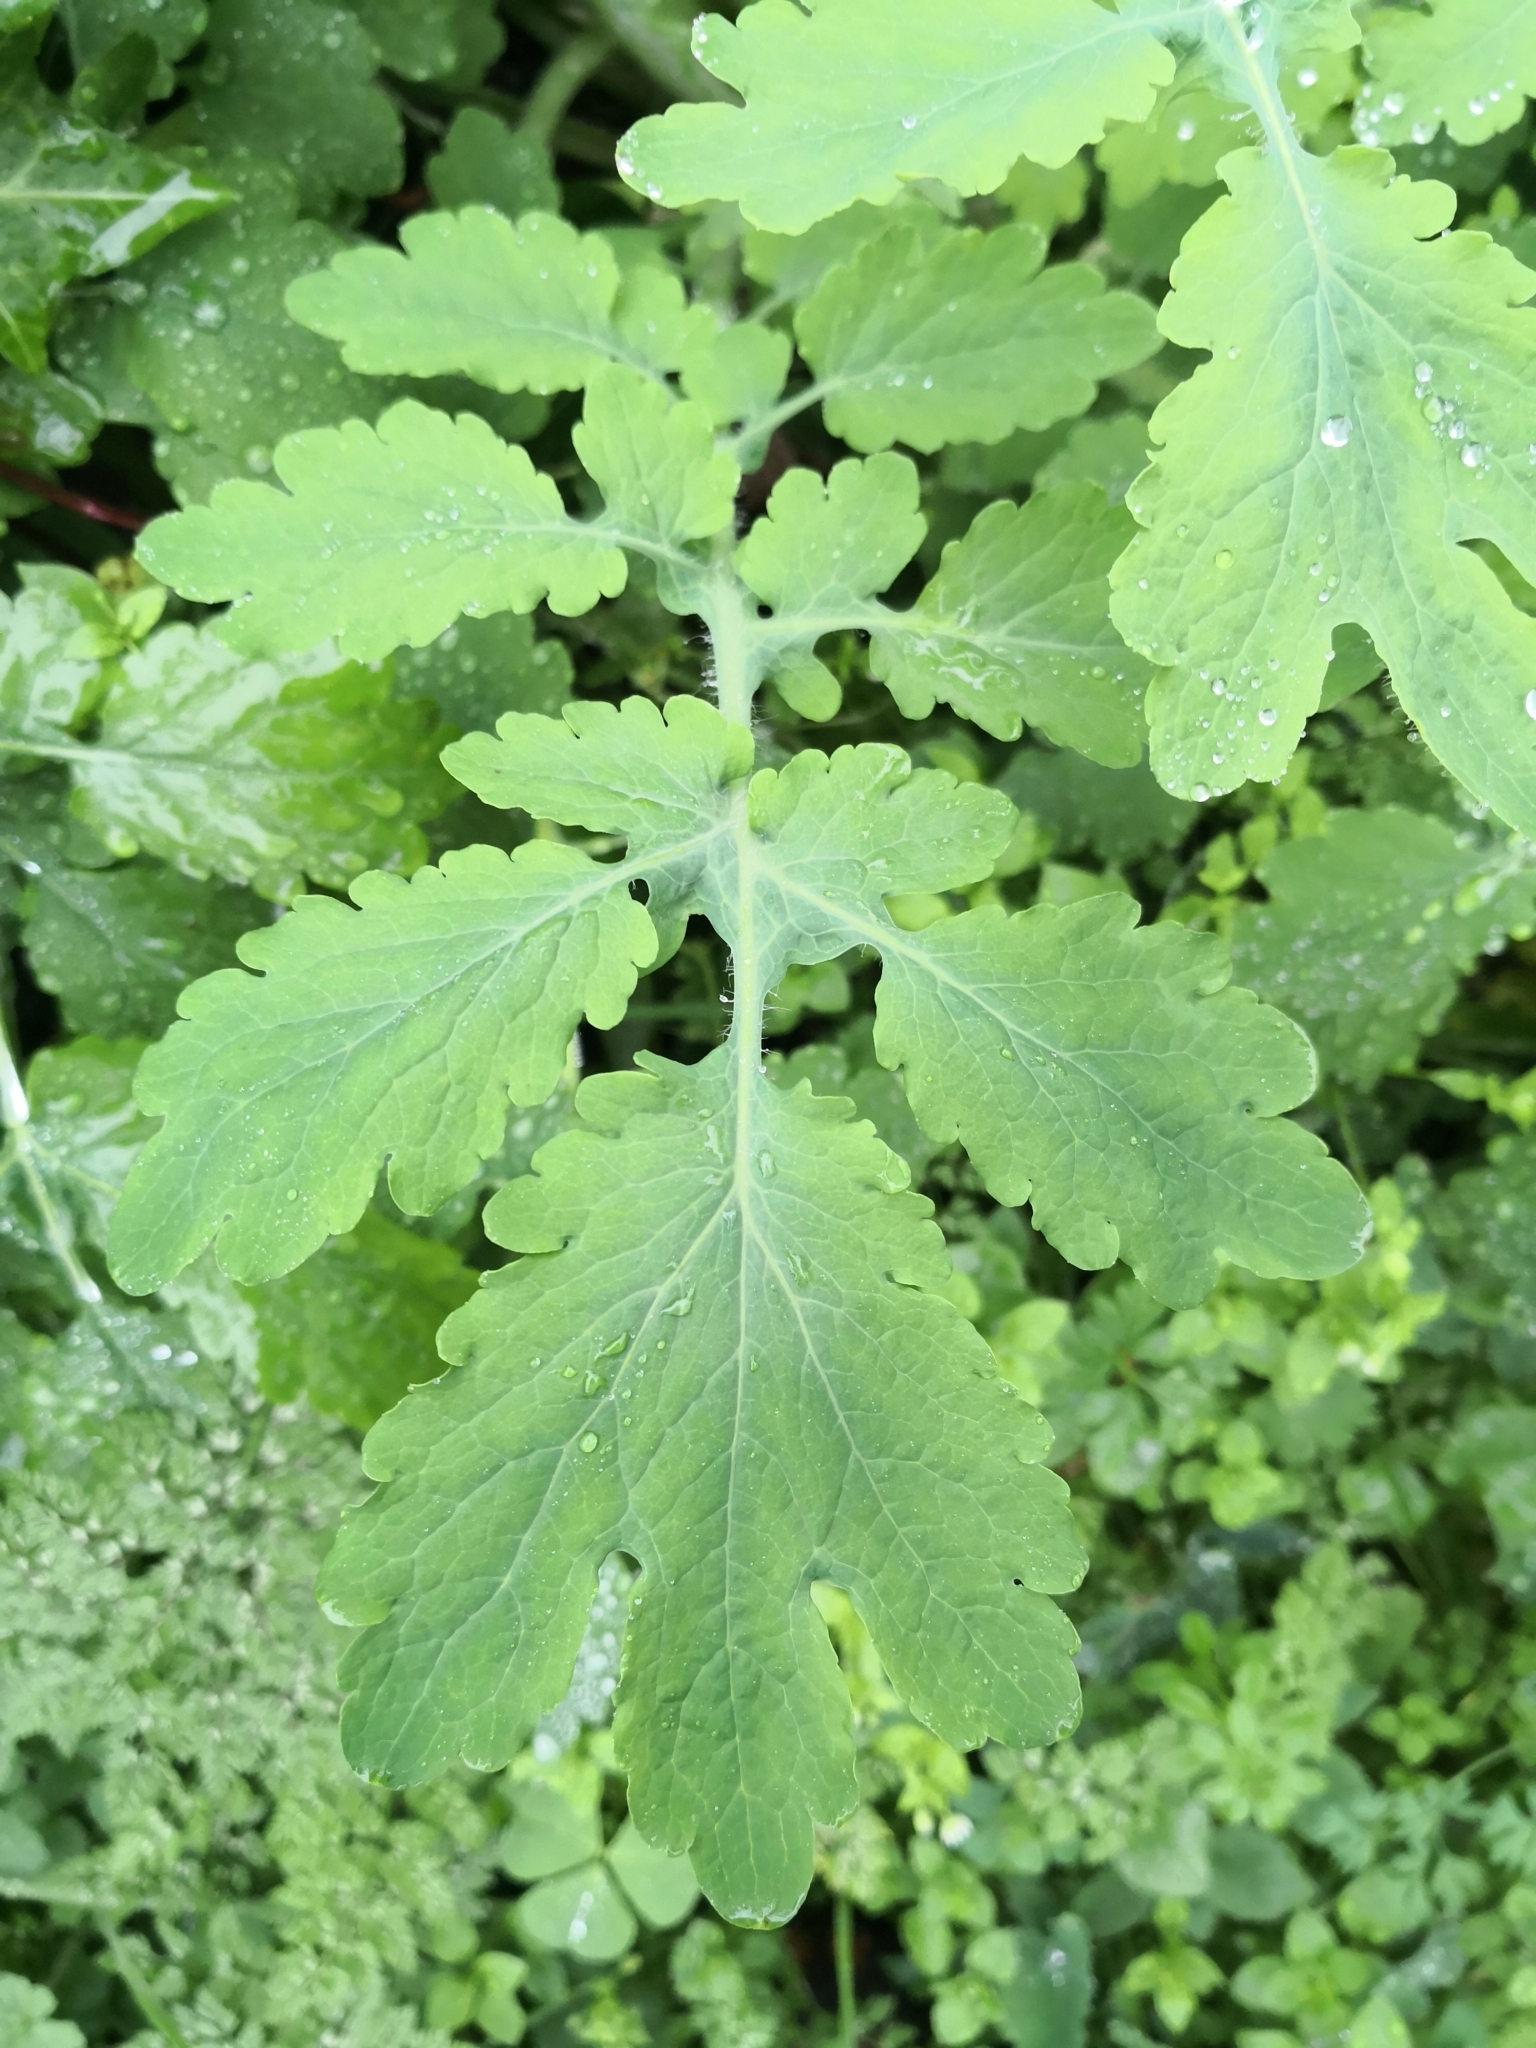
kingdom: Plantae
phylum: Tracheophyta
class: Magnoliopsida
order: Ranunculales
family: Papaveraceae
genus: Chelidonium
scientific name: Chelidonium majus
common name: Greater celandine
